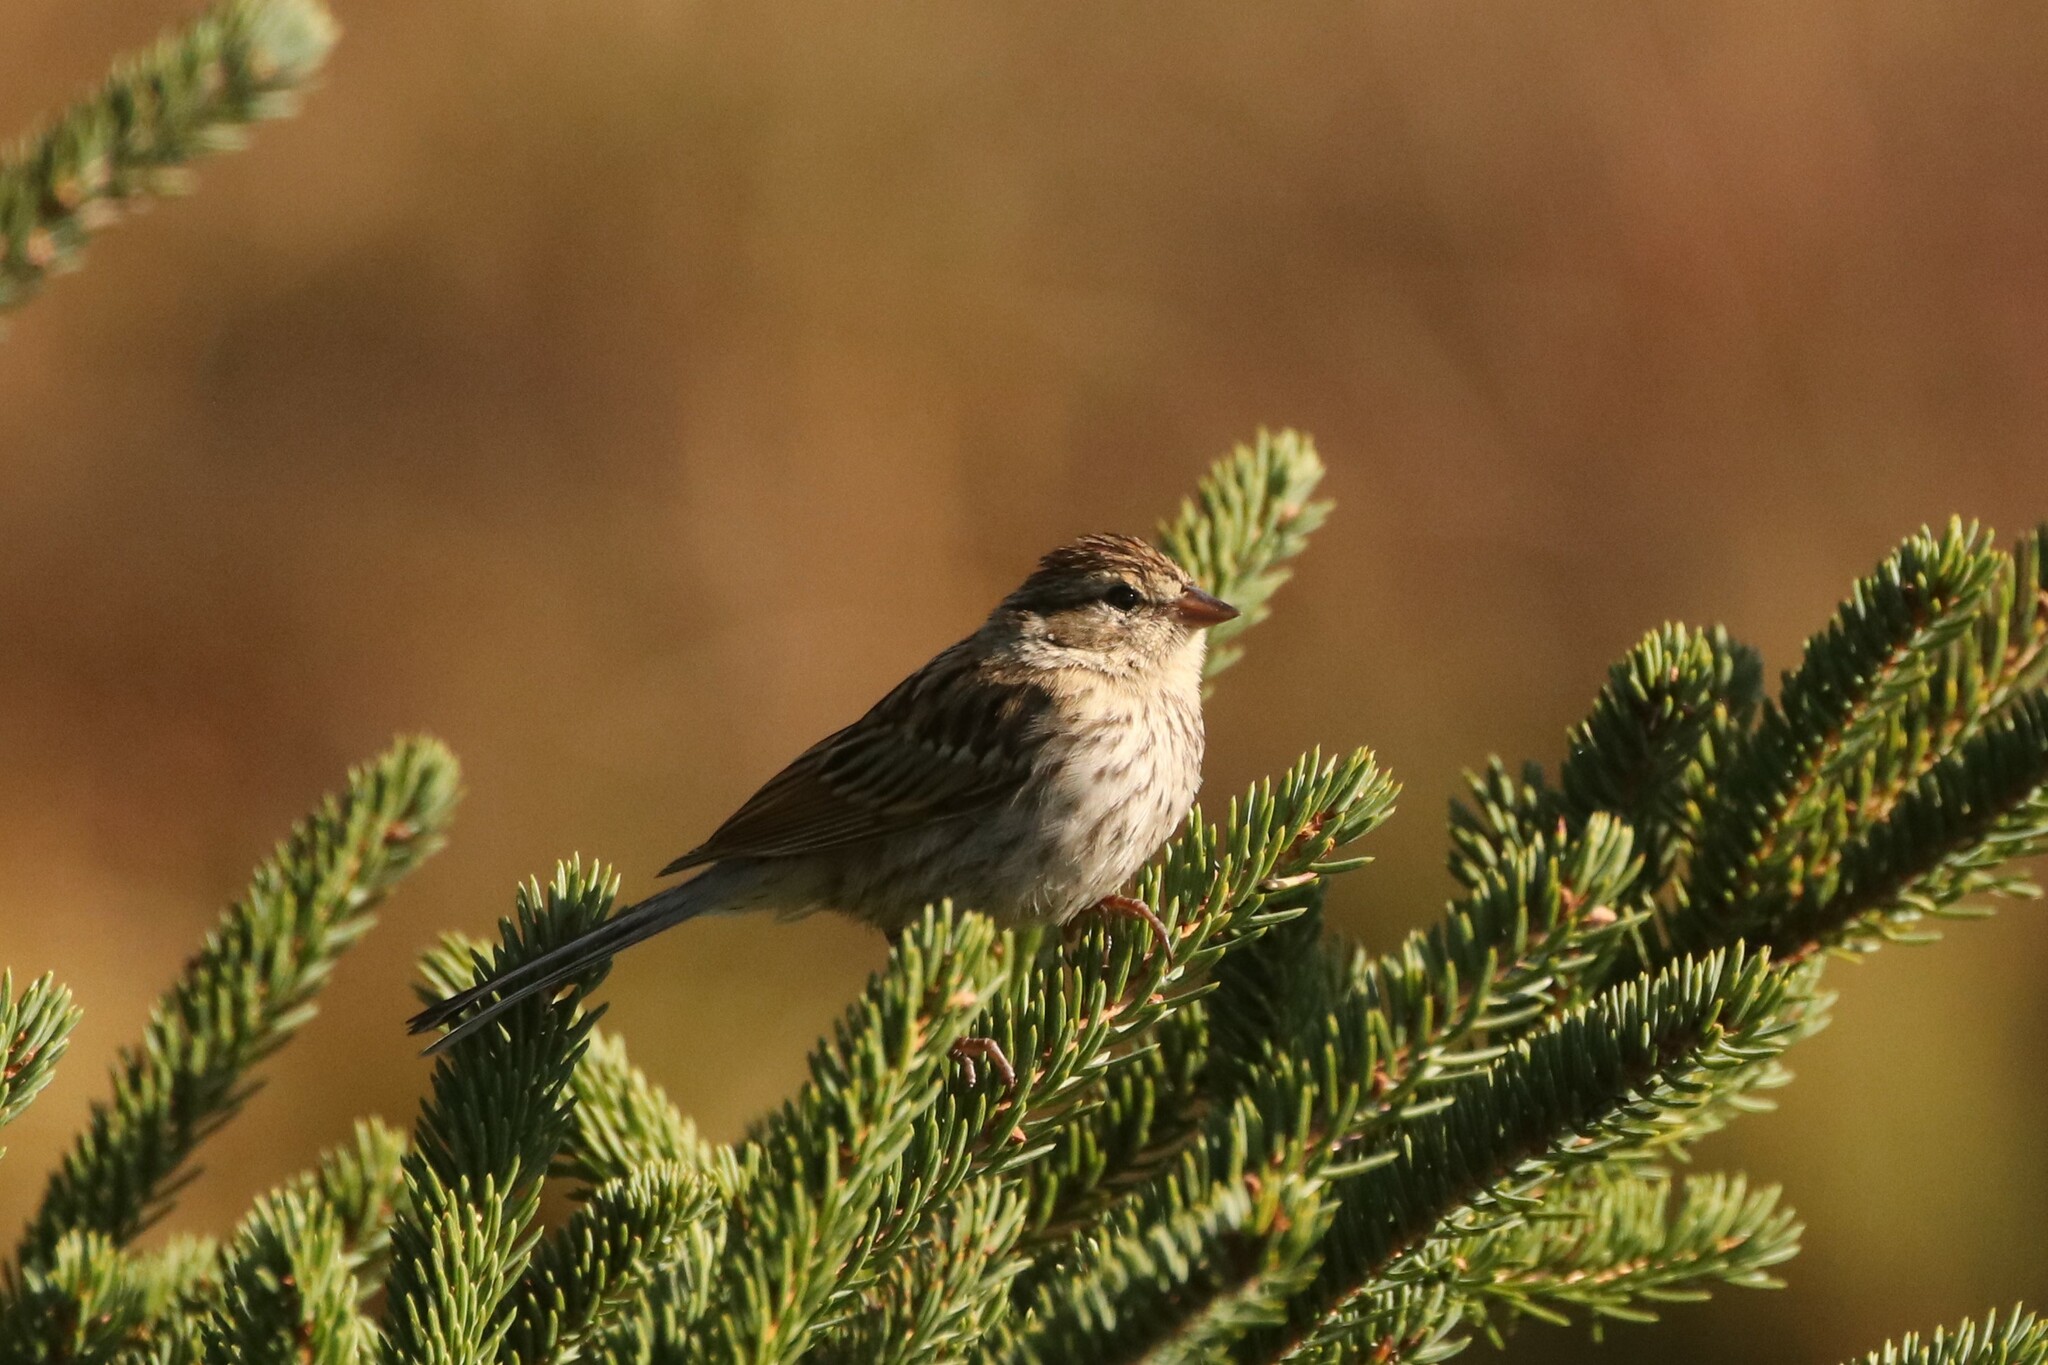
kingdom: Animalia
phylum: Chordata
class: Aves
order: Passeriformes
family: Passerellidae
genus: Spizella
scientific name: Spizella passerina
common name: Chipping sparrow
